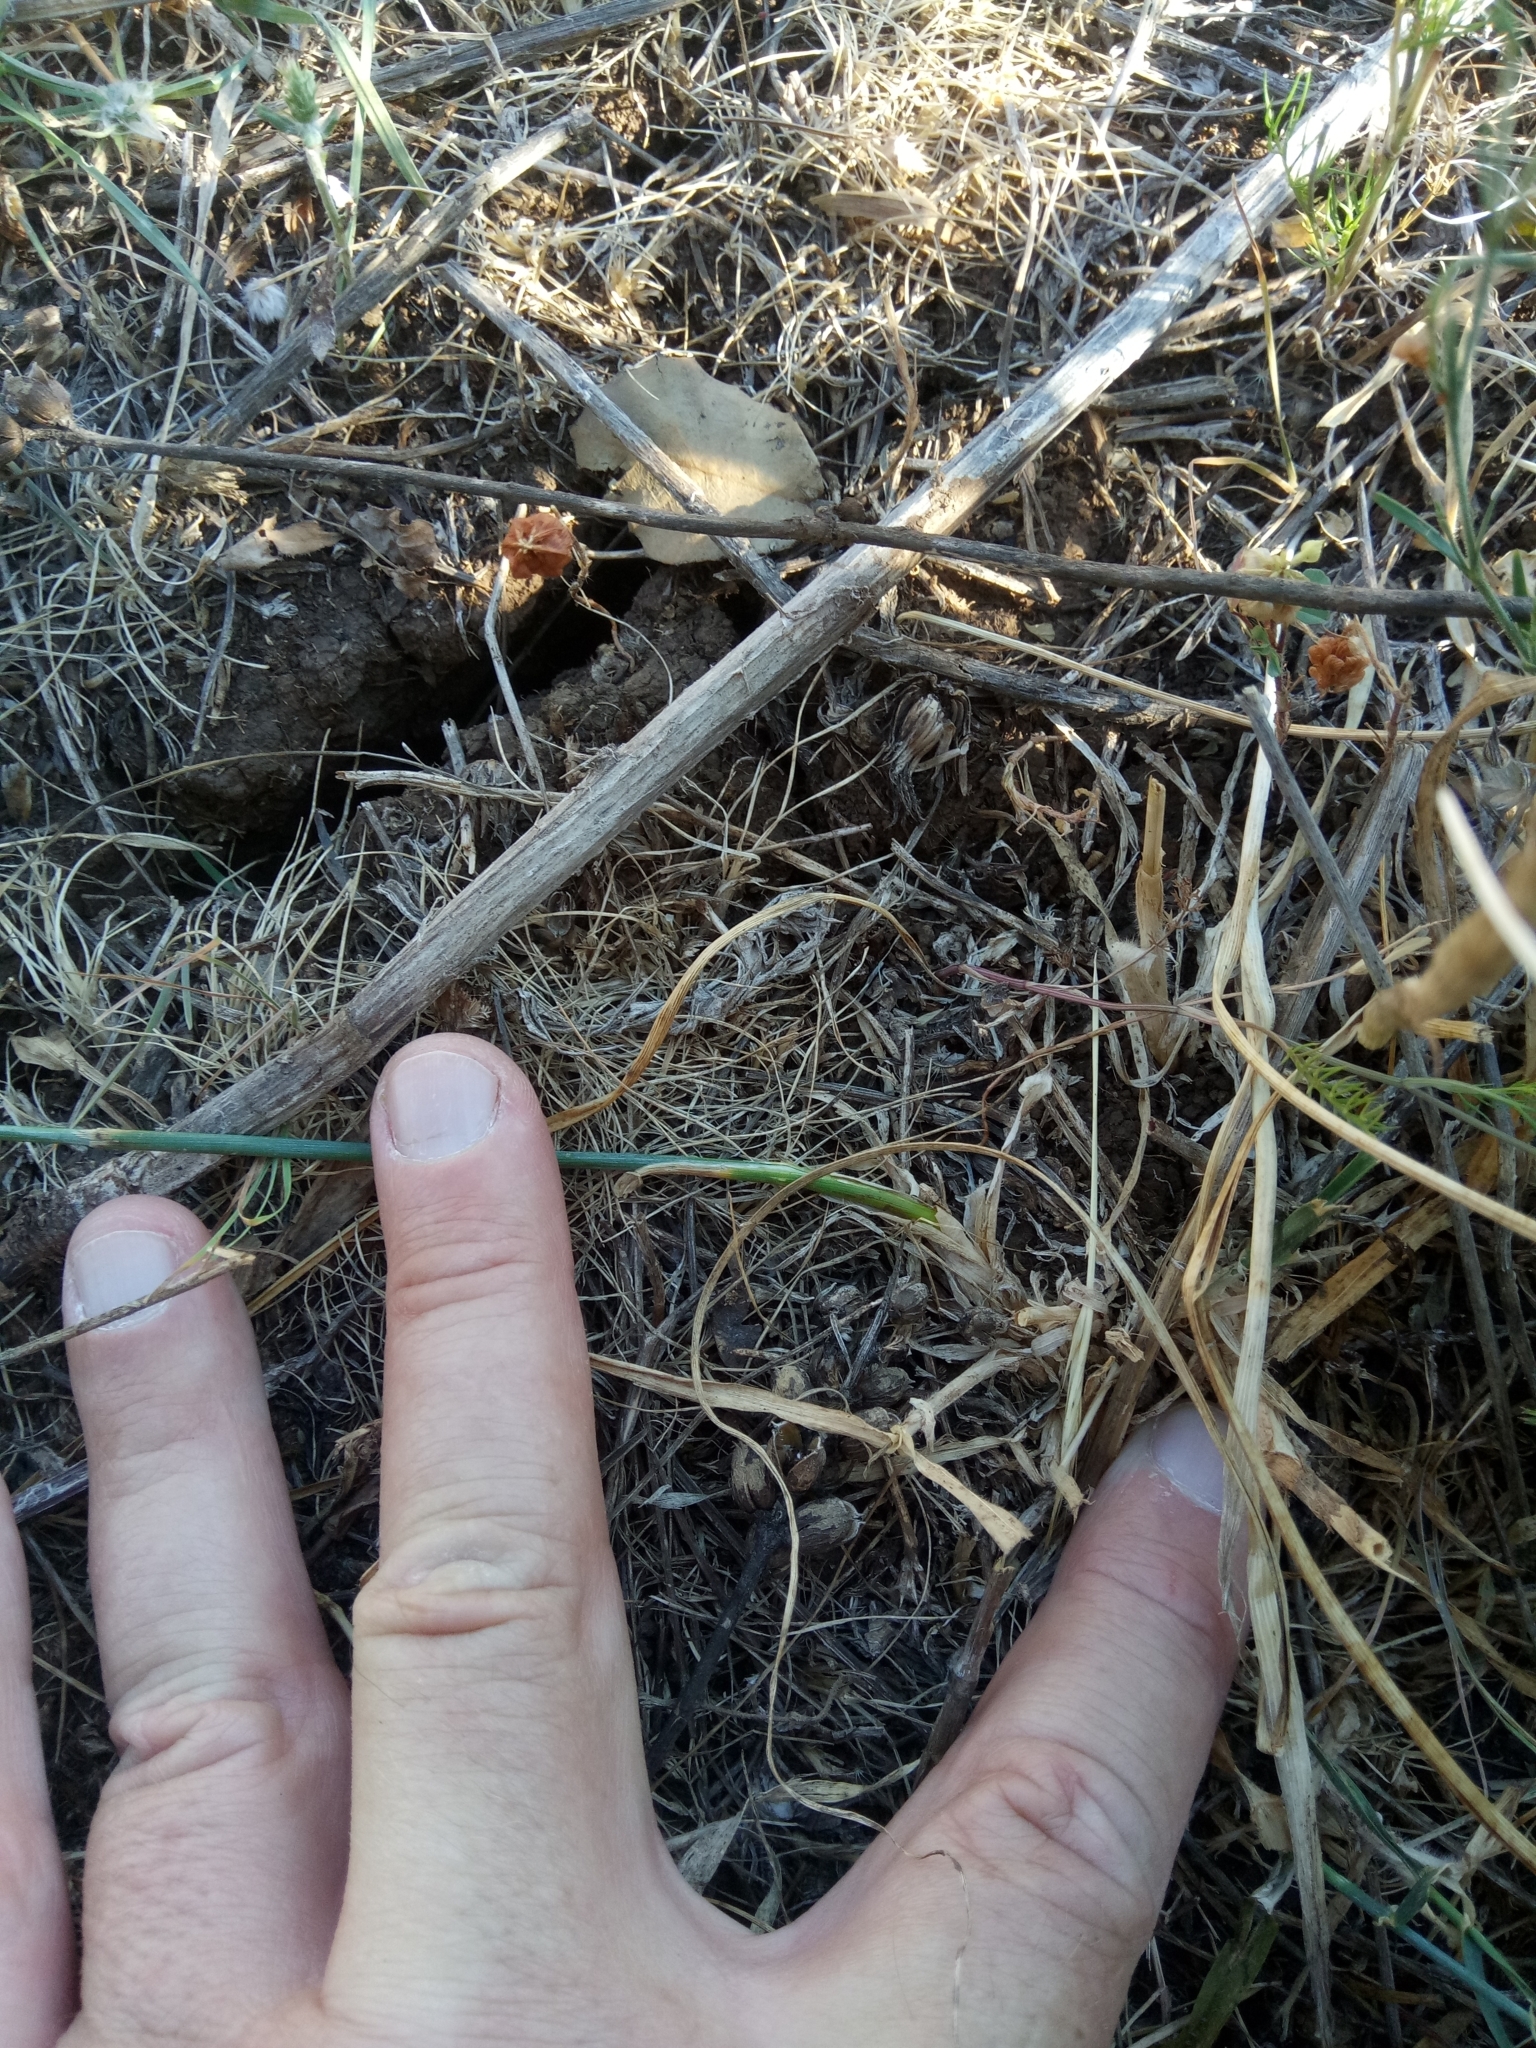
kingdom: Plantae
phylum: Tracheophyta
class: Liliopsida
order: Poales
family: Poaceae
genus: Hordeum
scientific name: Hordeum murinum
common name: Wall barley
